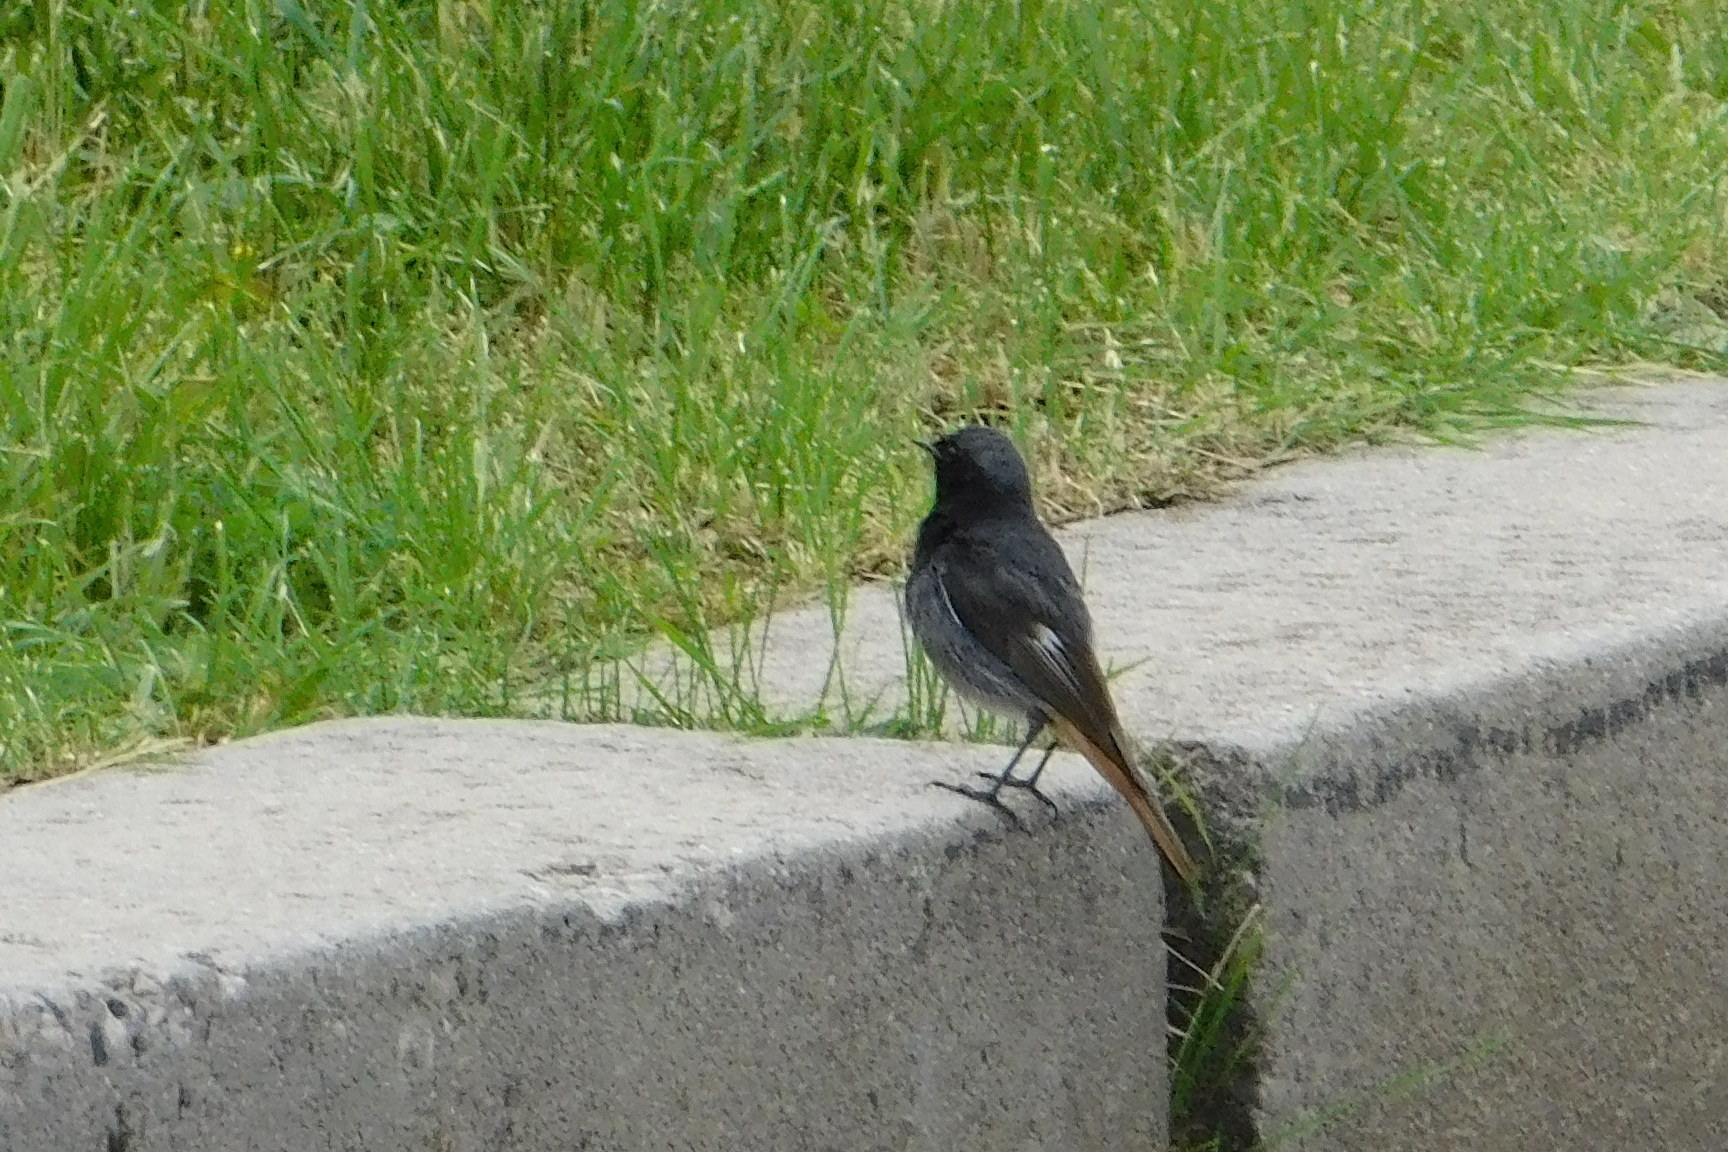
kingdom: Animalia
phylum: Chordata
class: Aves
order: Passeriformes
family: Muscicapidae
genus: Phoenicurus
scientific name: Phoenicurus ochruros
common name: Black redstart
